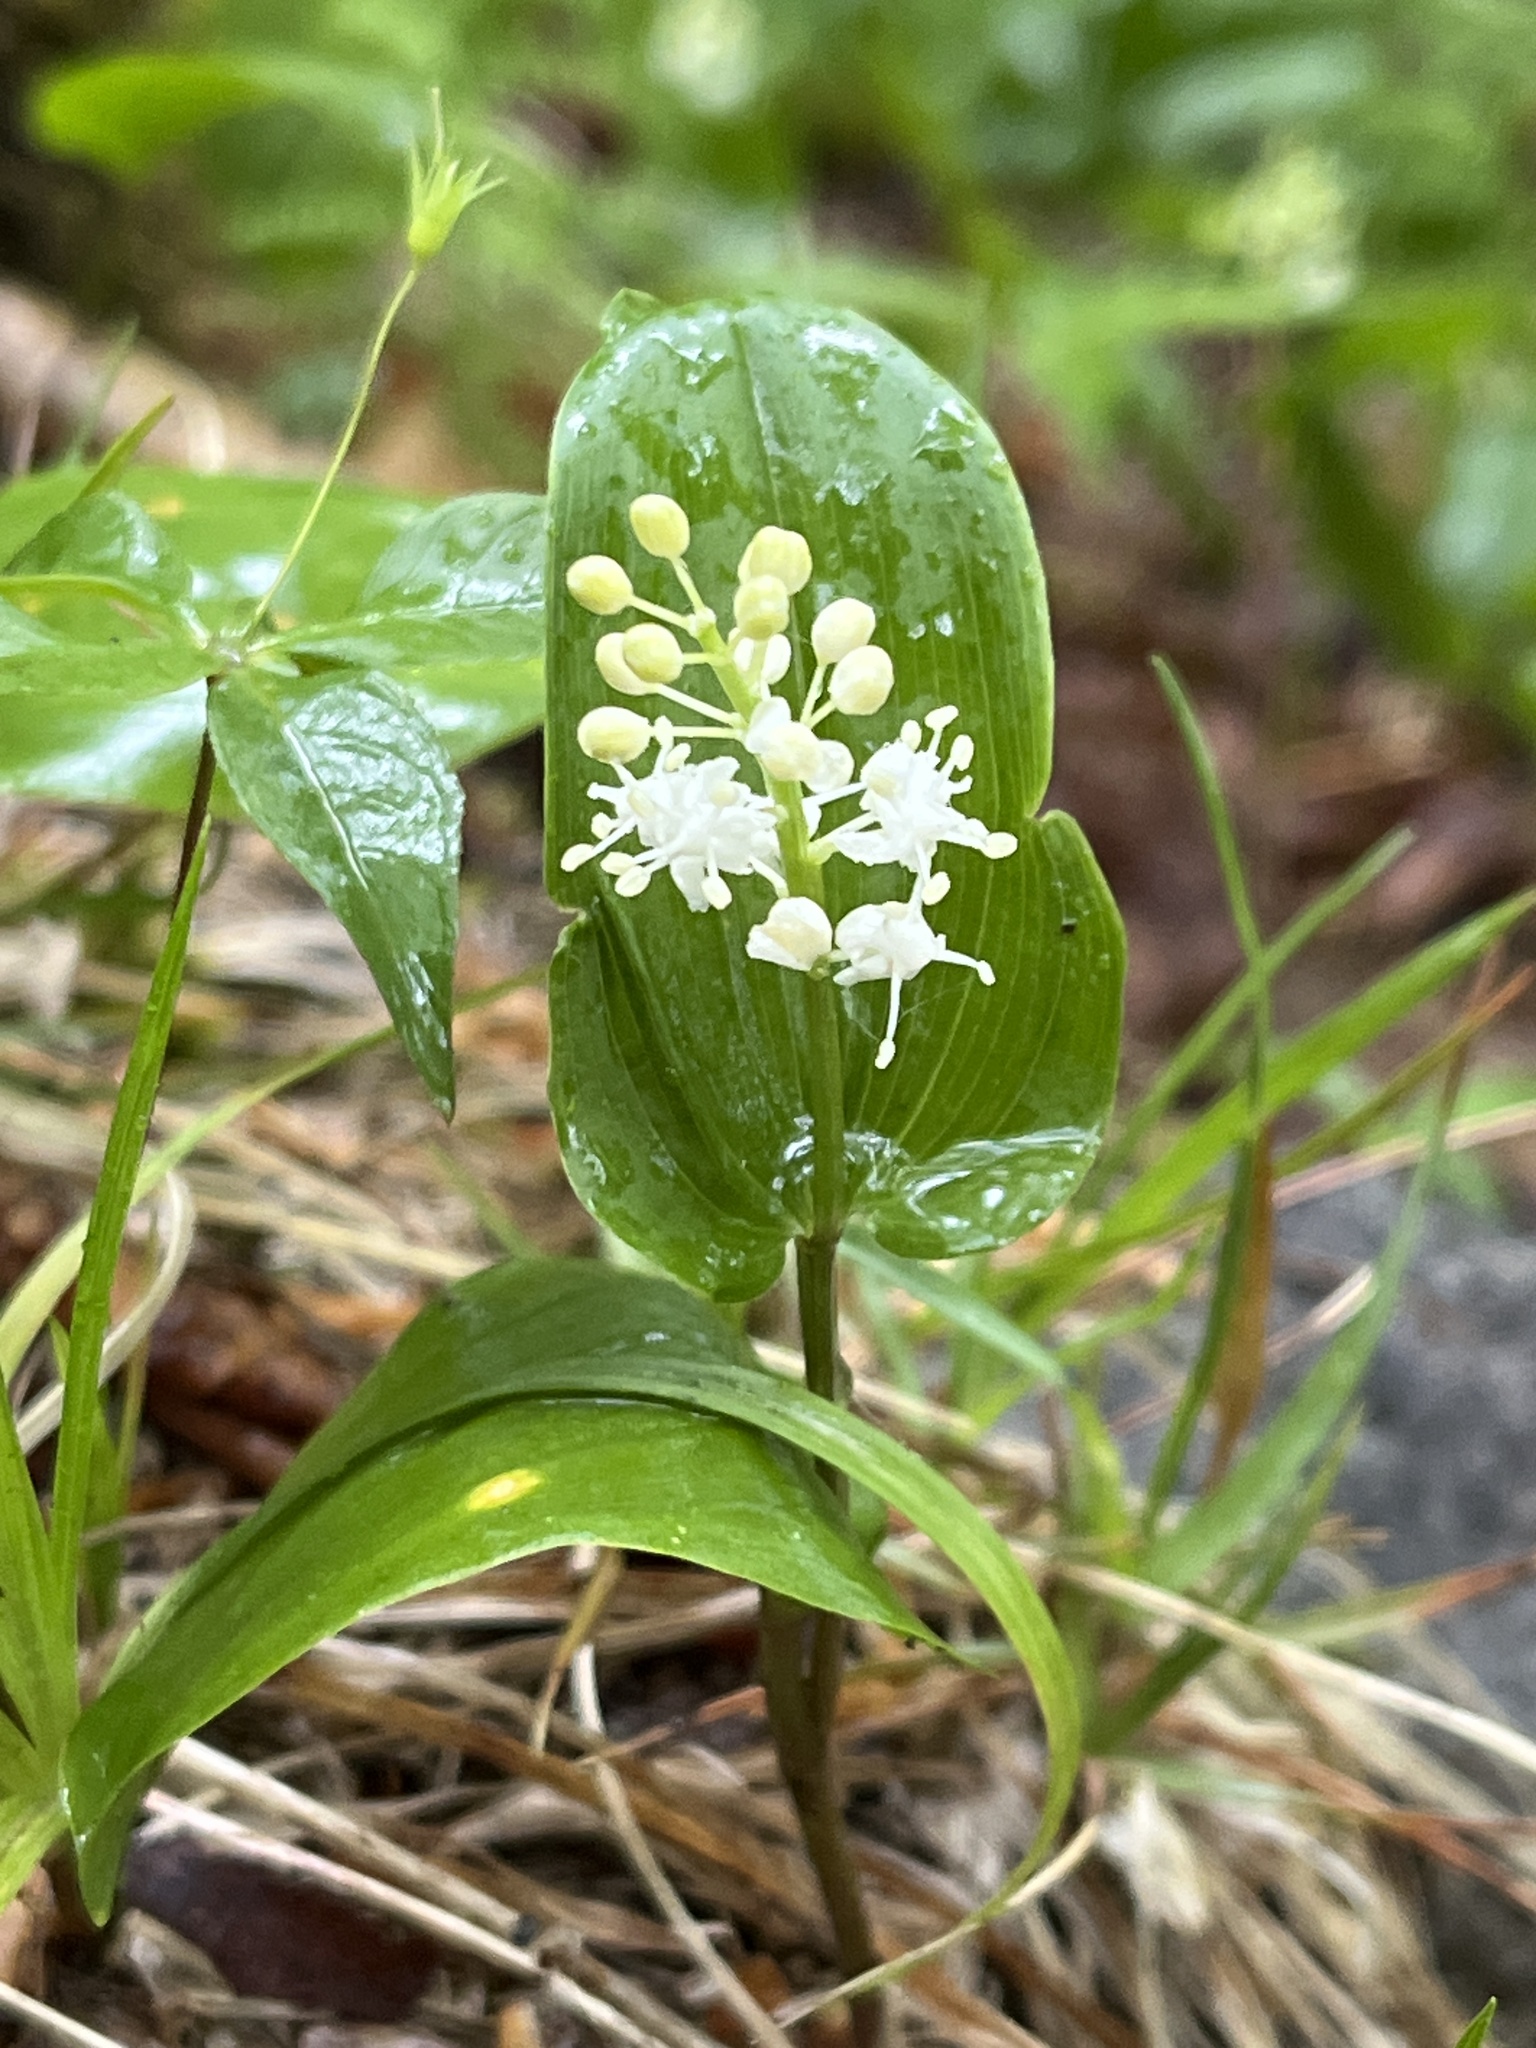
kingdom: Plantae
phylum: Tracheophyta
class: Liliopsida
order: Asparagales
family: Asparagaceae
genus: Maianthemum
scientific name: Maianthemum canadense
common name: False lily-of-the-valley
